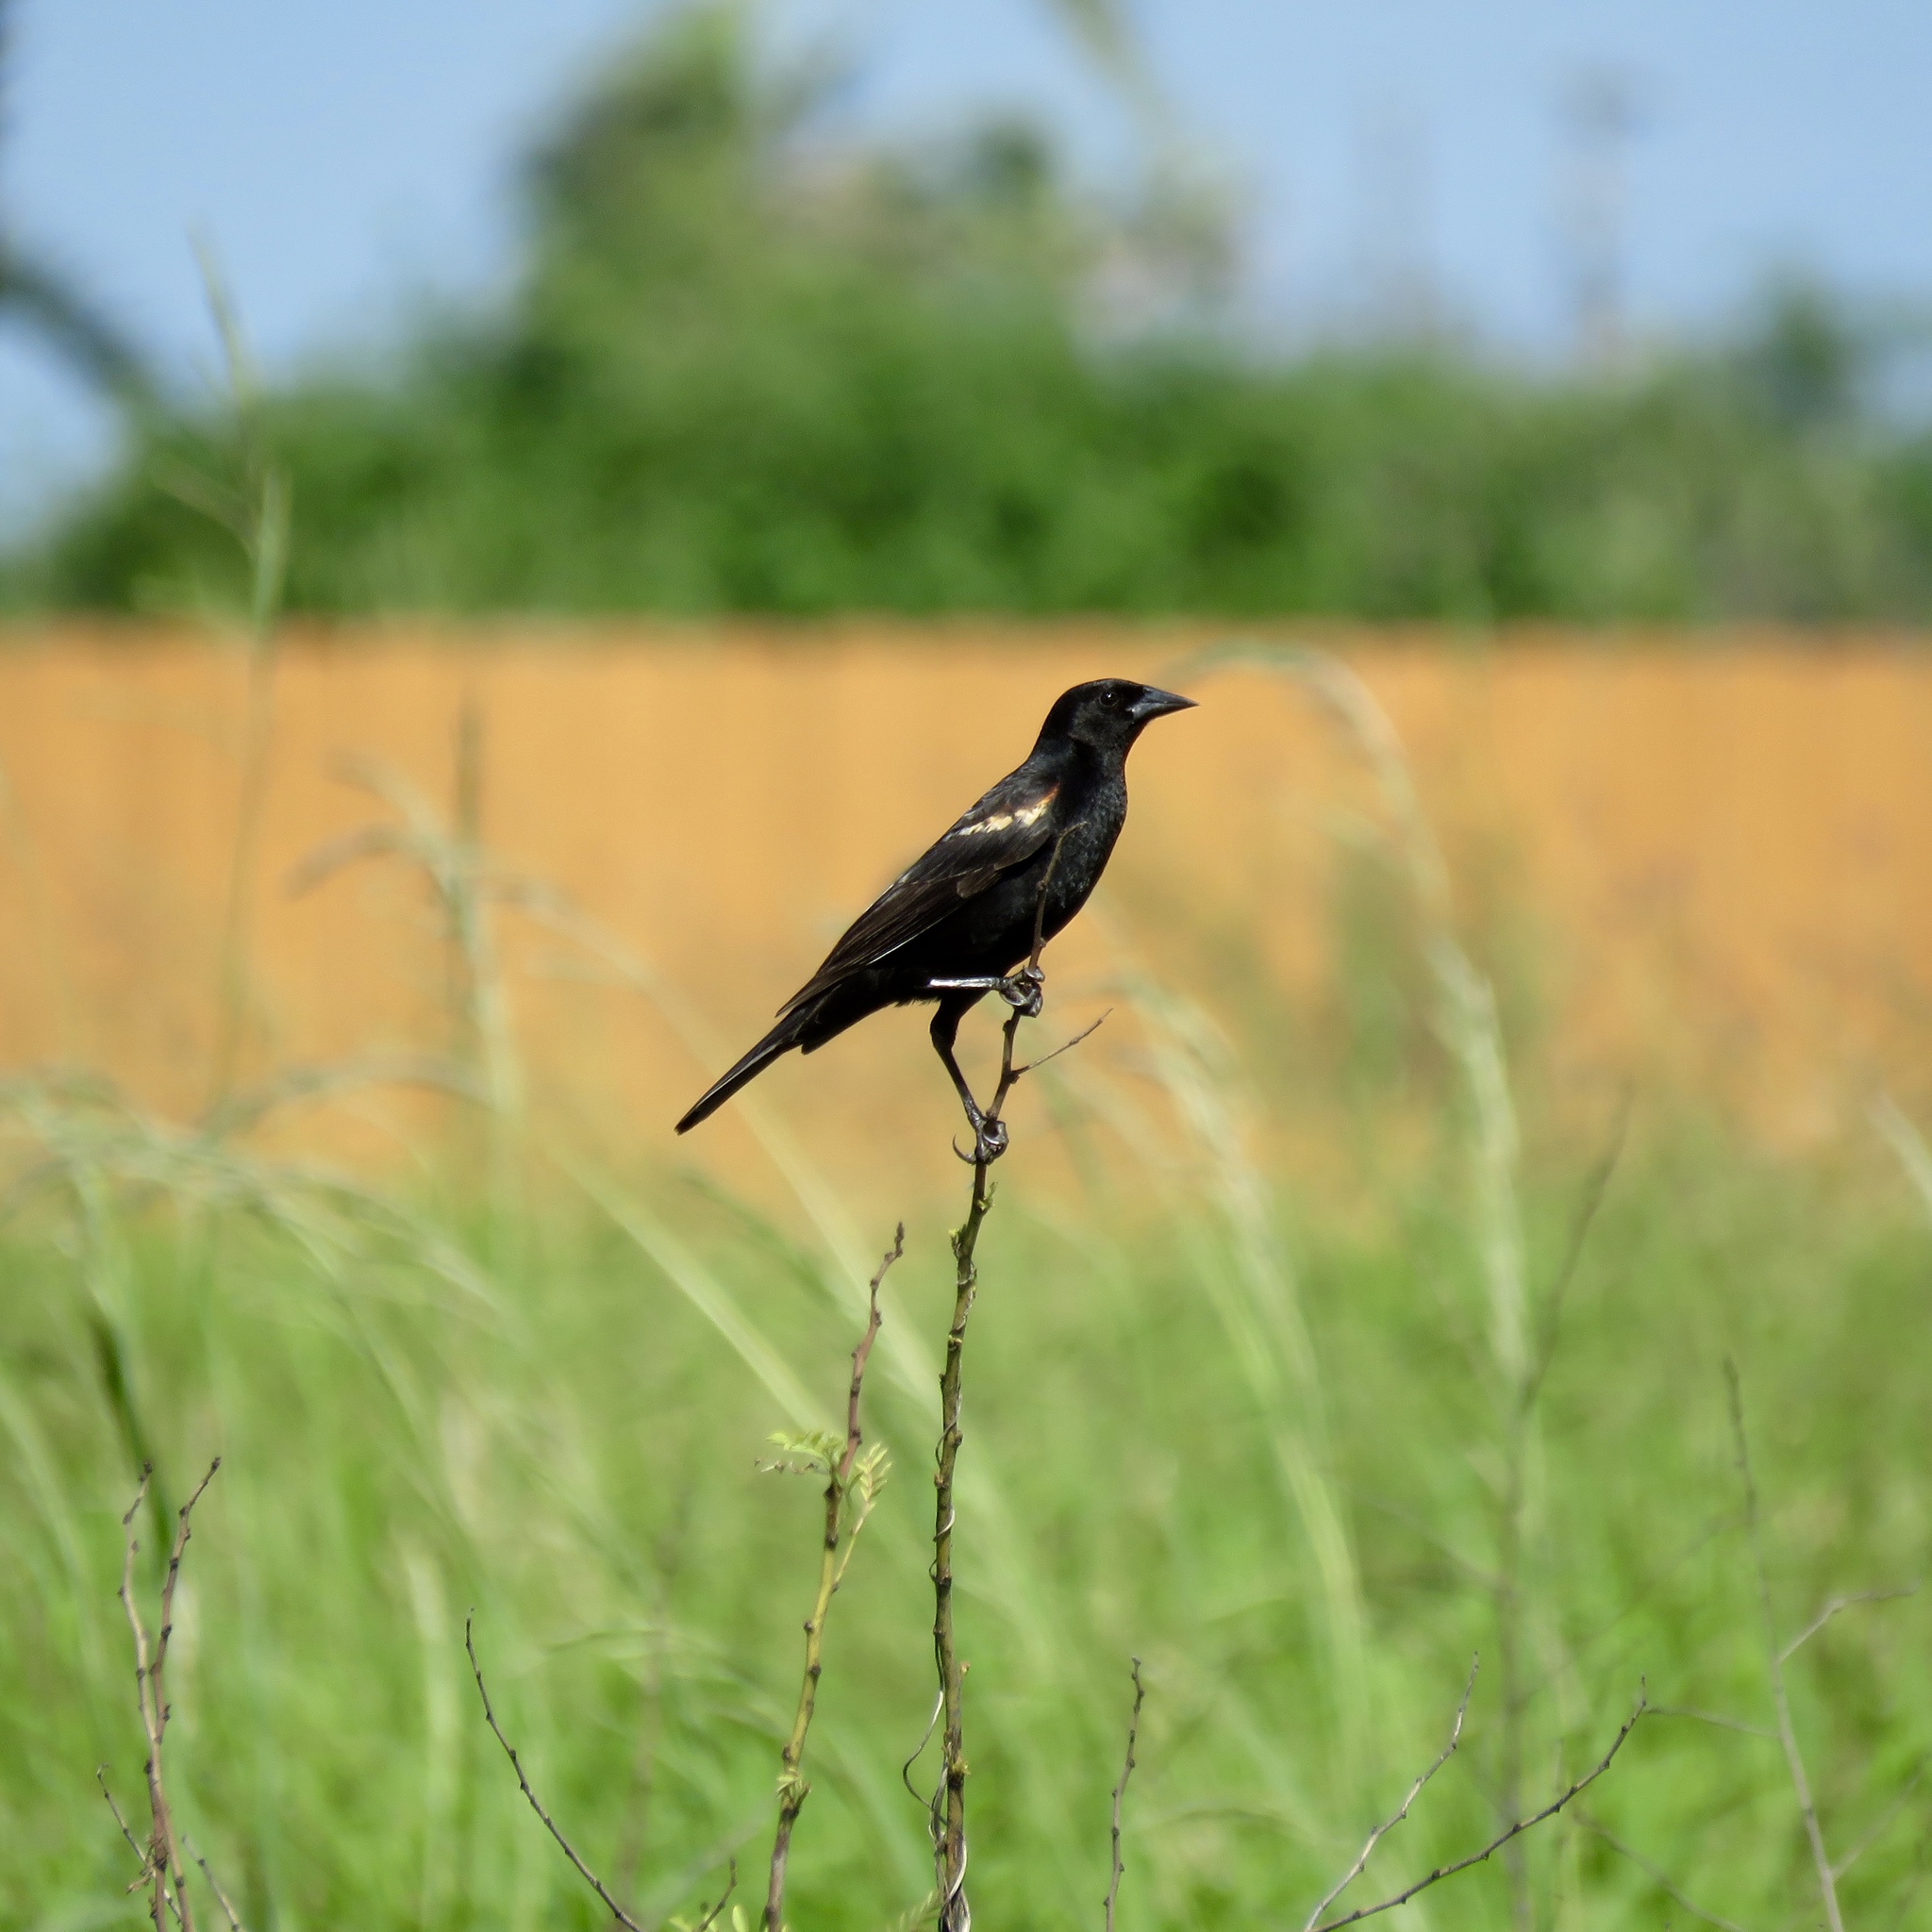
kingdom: Animalia
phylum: Chordata
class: Aves
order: Passeriformes
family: Icteridae
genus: Agelaius
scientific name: Agelaius phoeniceus
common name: Red-winged blackbird
